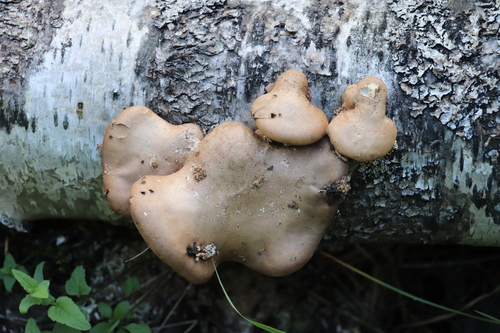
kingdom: Fungi
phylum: Basidiomycota
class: Agaricomycetes
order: Polyporales
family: Fomitopsidaceae
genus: Fomitopsis
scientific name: Fomitopsis betulina
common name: Birch polypore
